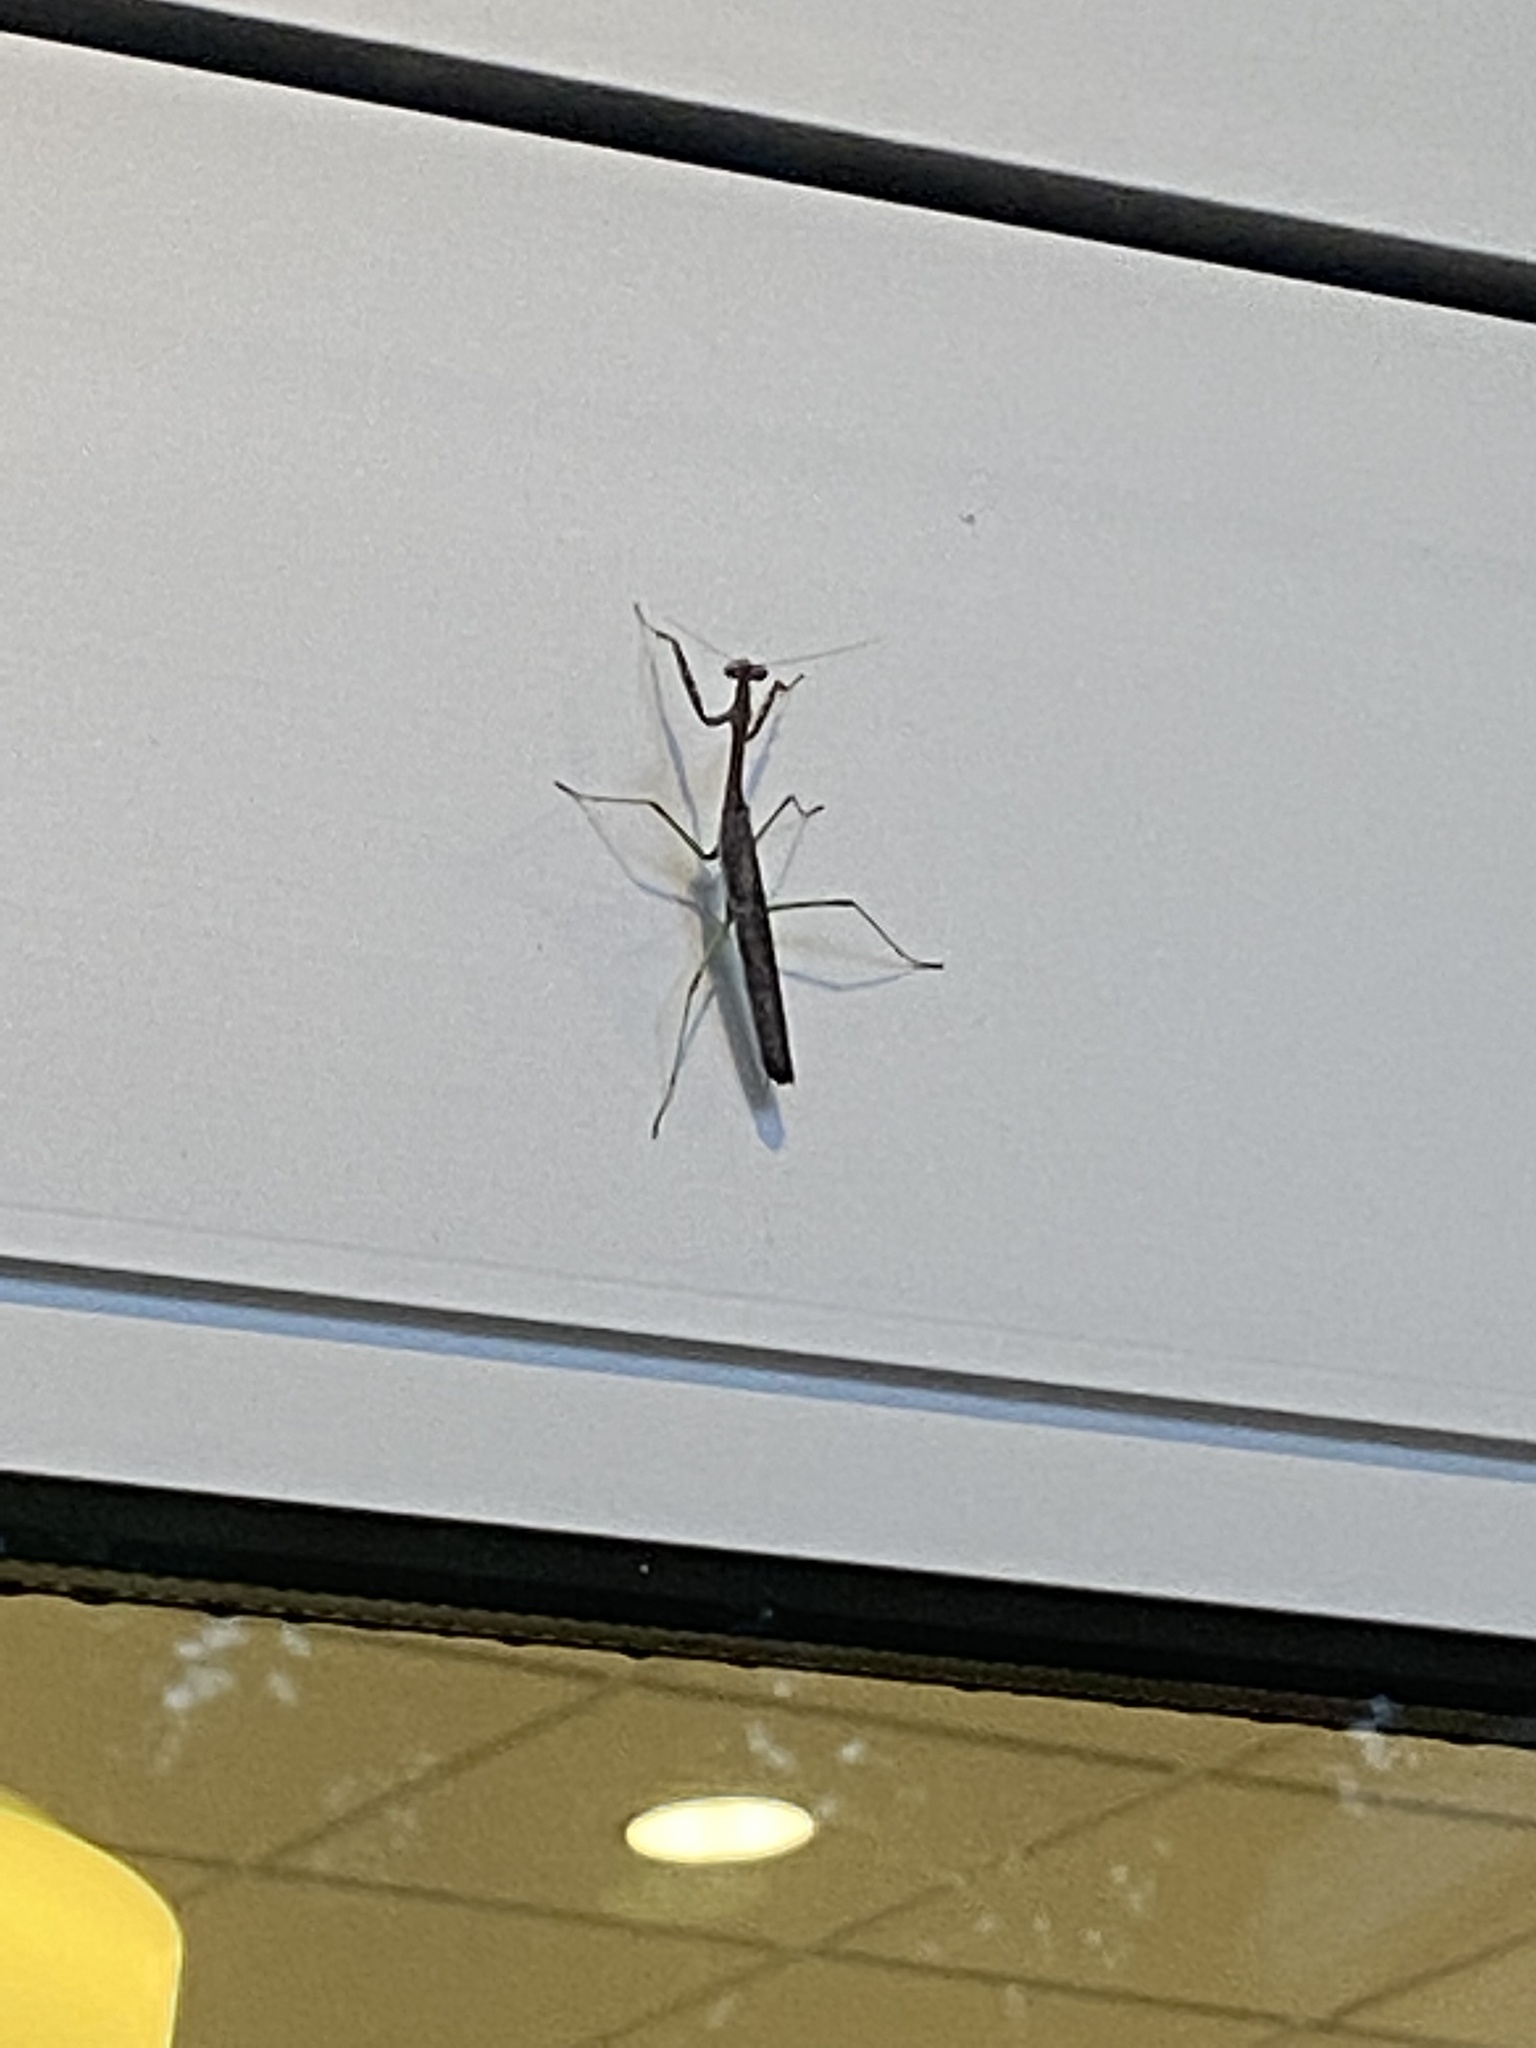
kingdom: Animalia
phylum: Arthropoda
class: Insecta
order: Mantodea
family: Mantidae
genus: Stagmomantis
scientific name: Stagmomantis carolina
